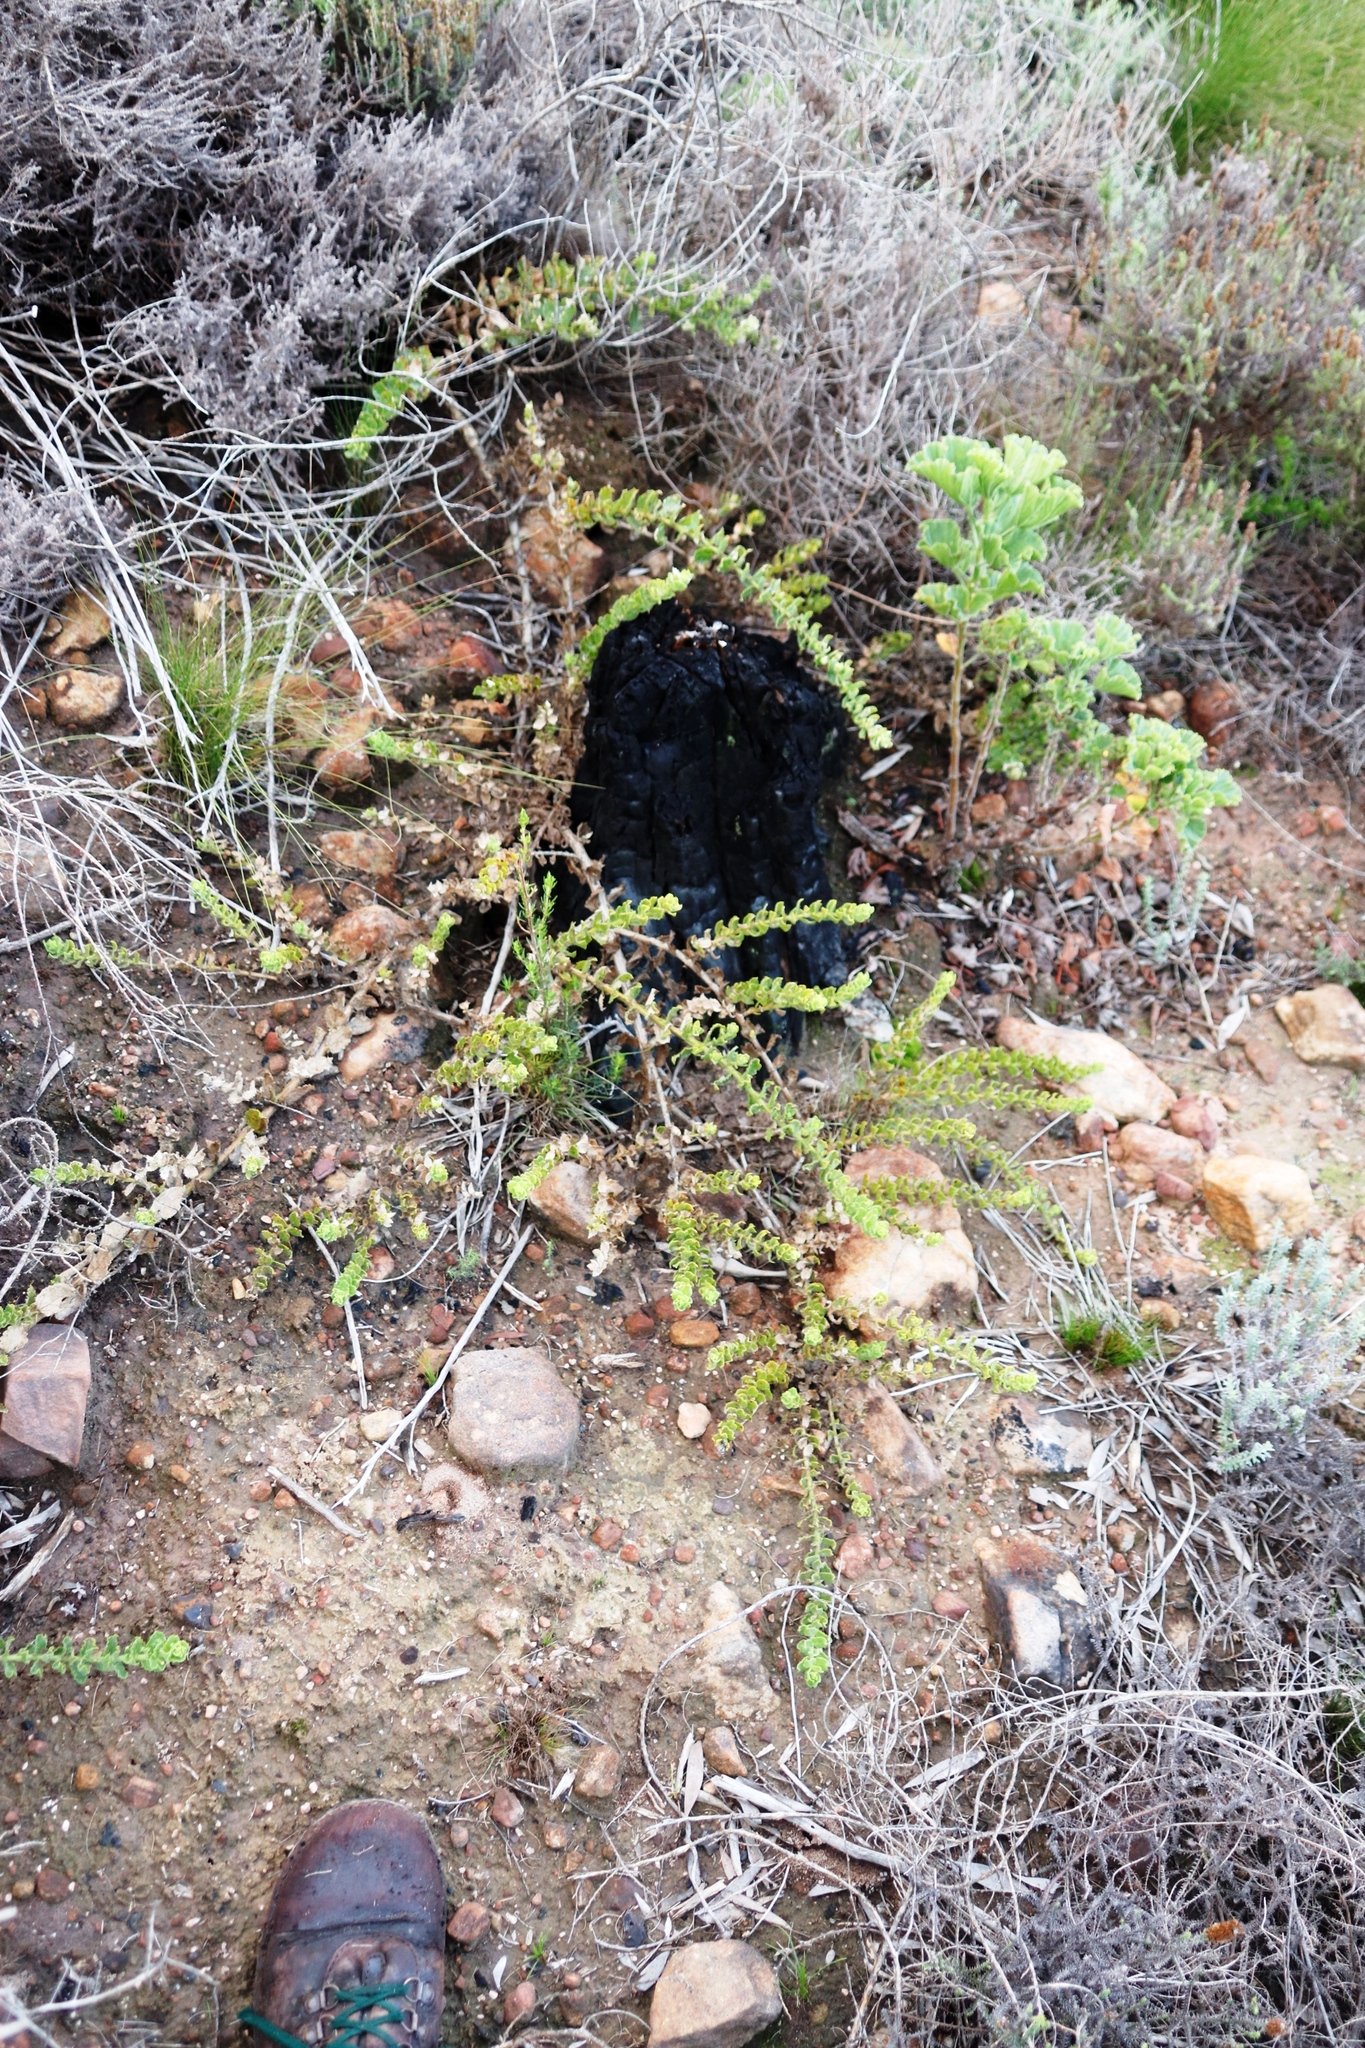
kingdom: Plantae
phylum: Tracheophyta
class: Magnoliopsida
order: Lamiales
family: Scrophulariaceae
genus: Oftia
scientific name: Oftia africana
